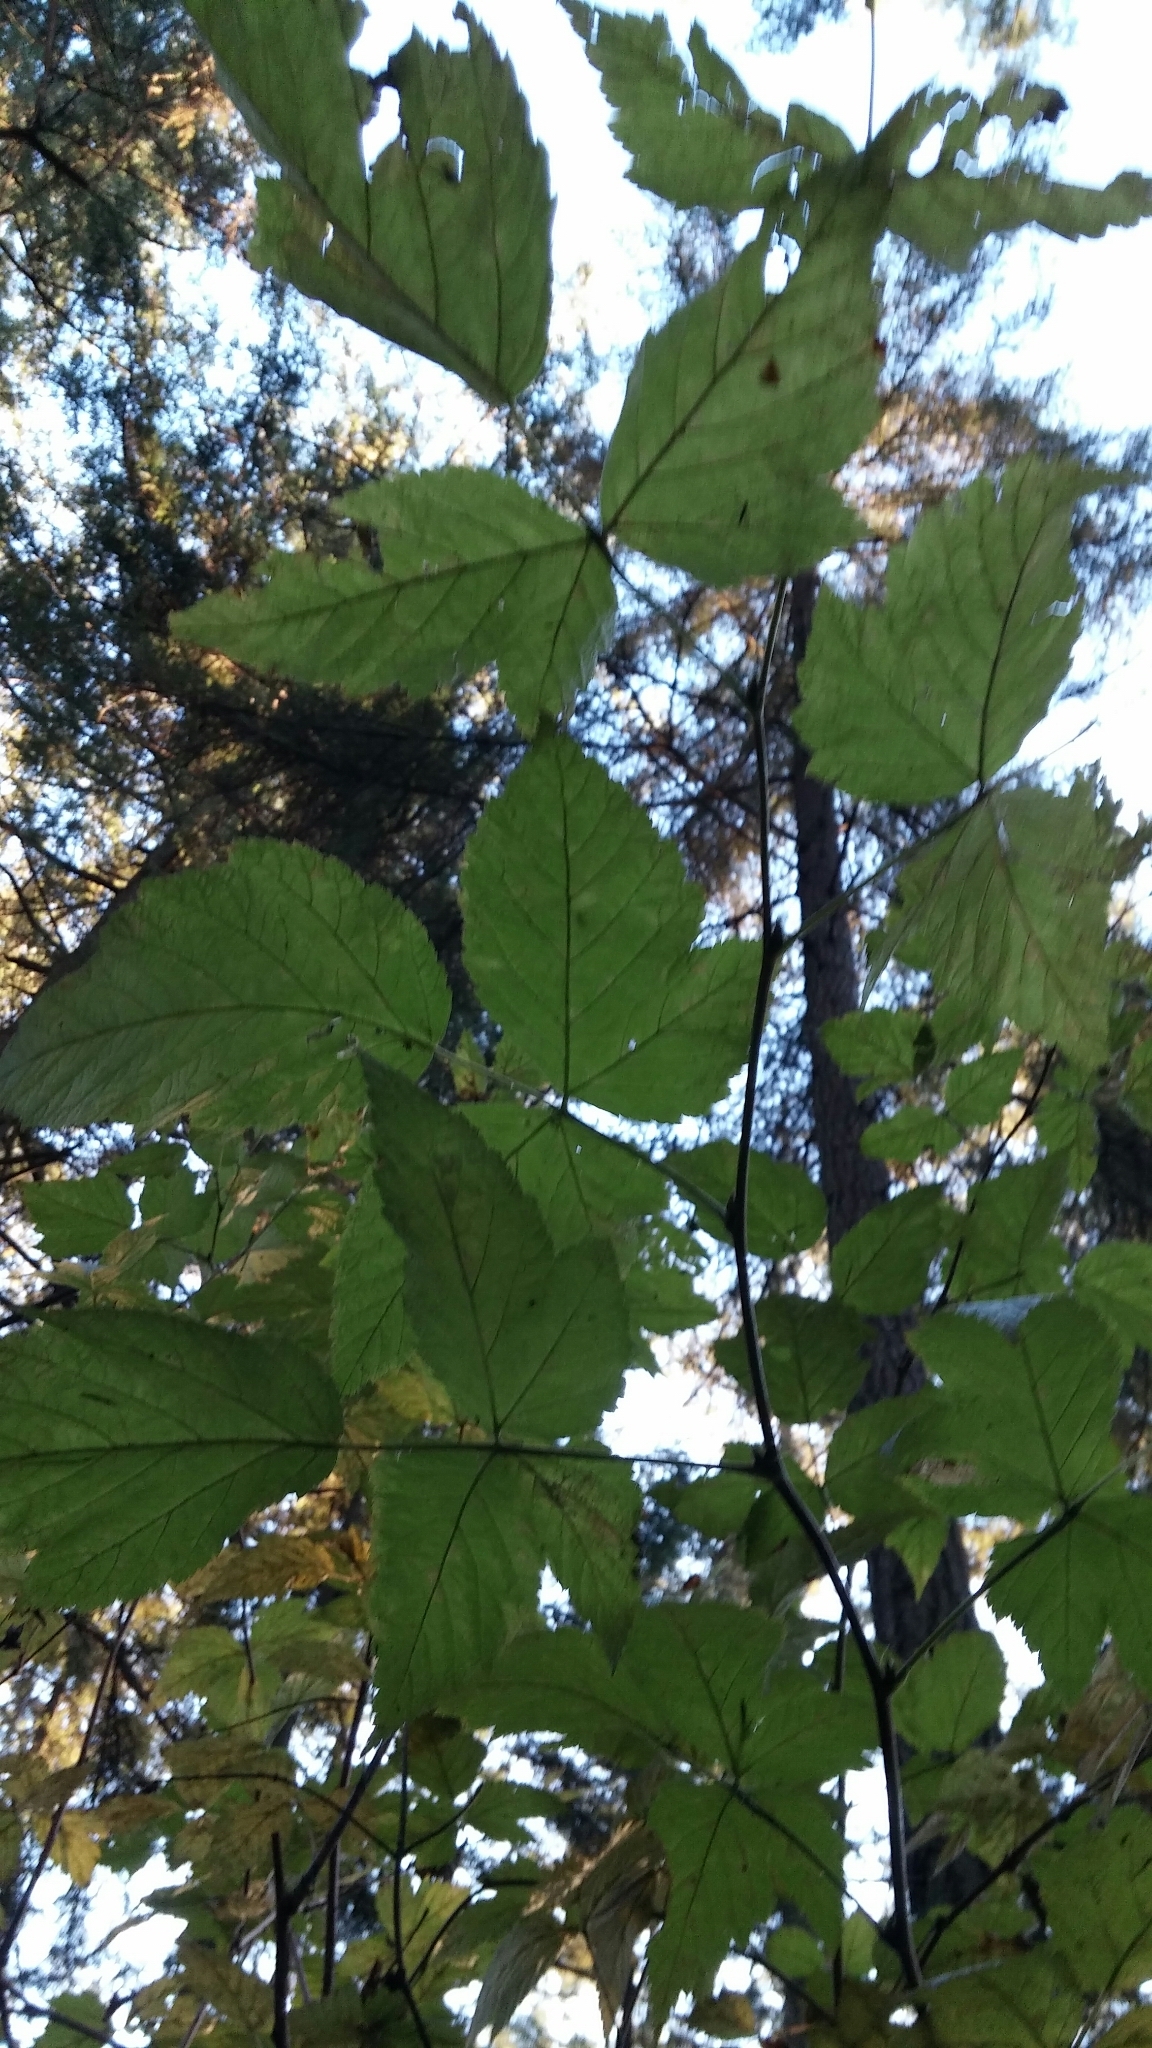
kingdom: Plantae
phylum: Tracheophyta
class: Magnoliopsida
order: Rosales
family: Rosaceae
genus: Rubus
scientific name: Rubus spectabilis
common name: Salmonberry
